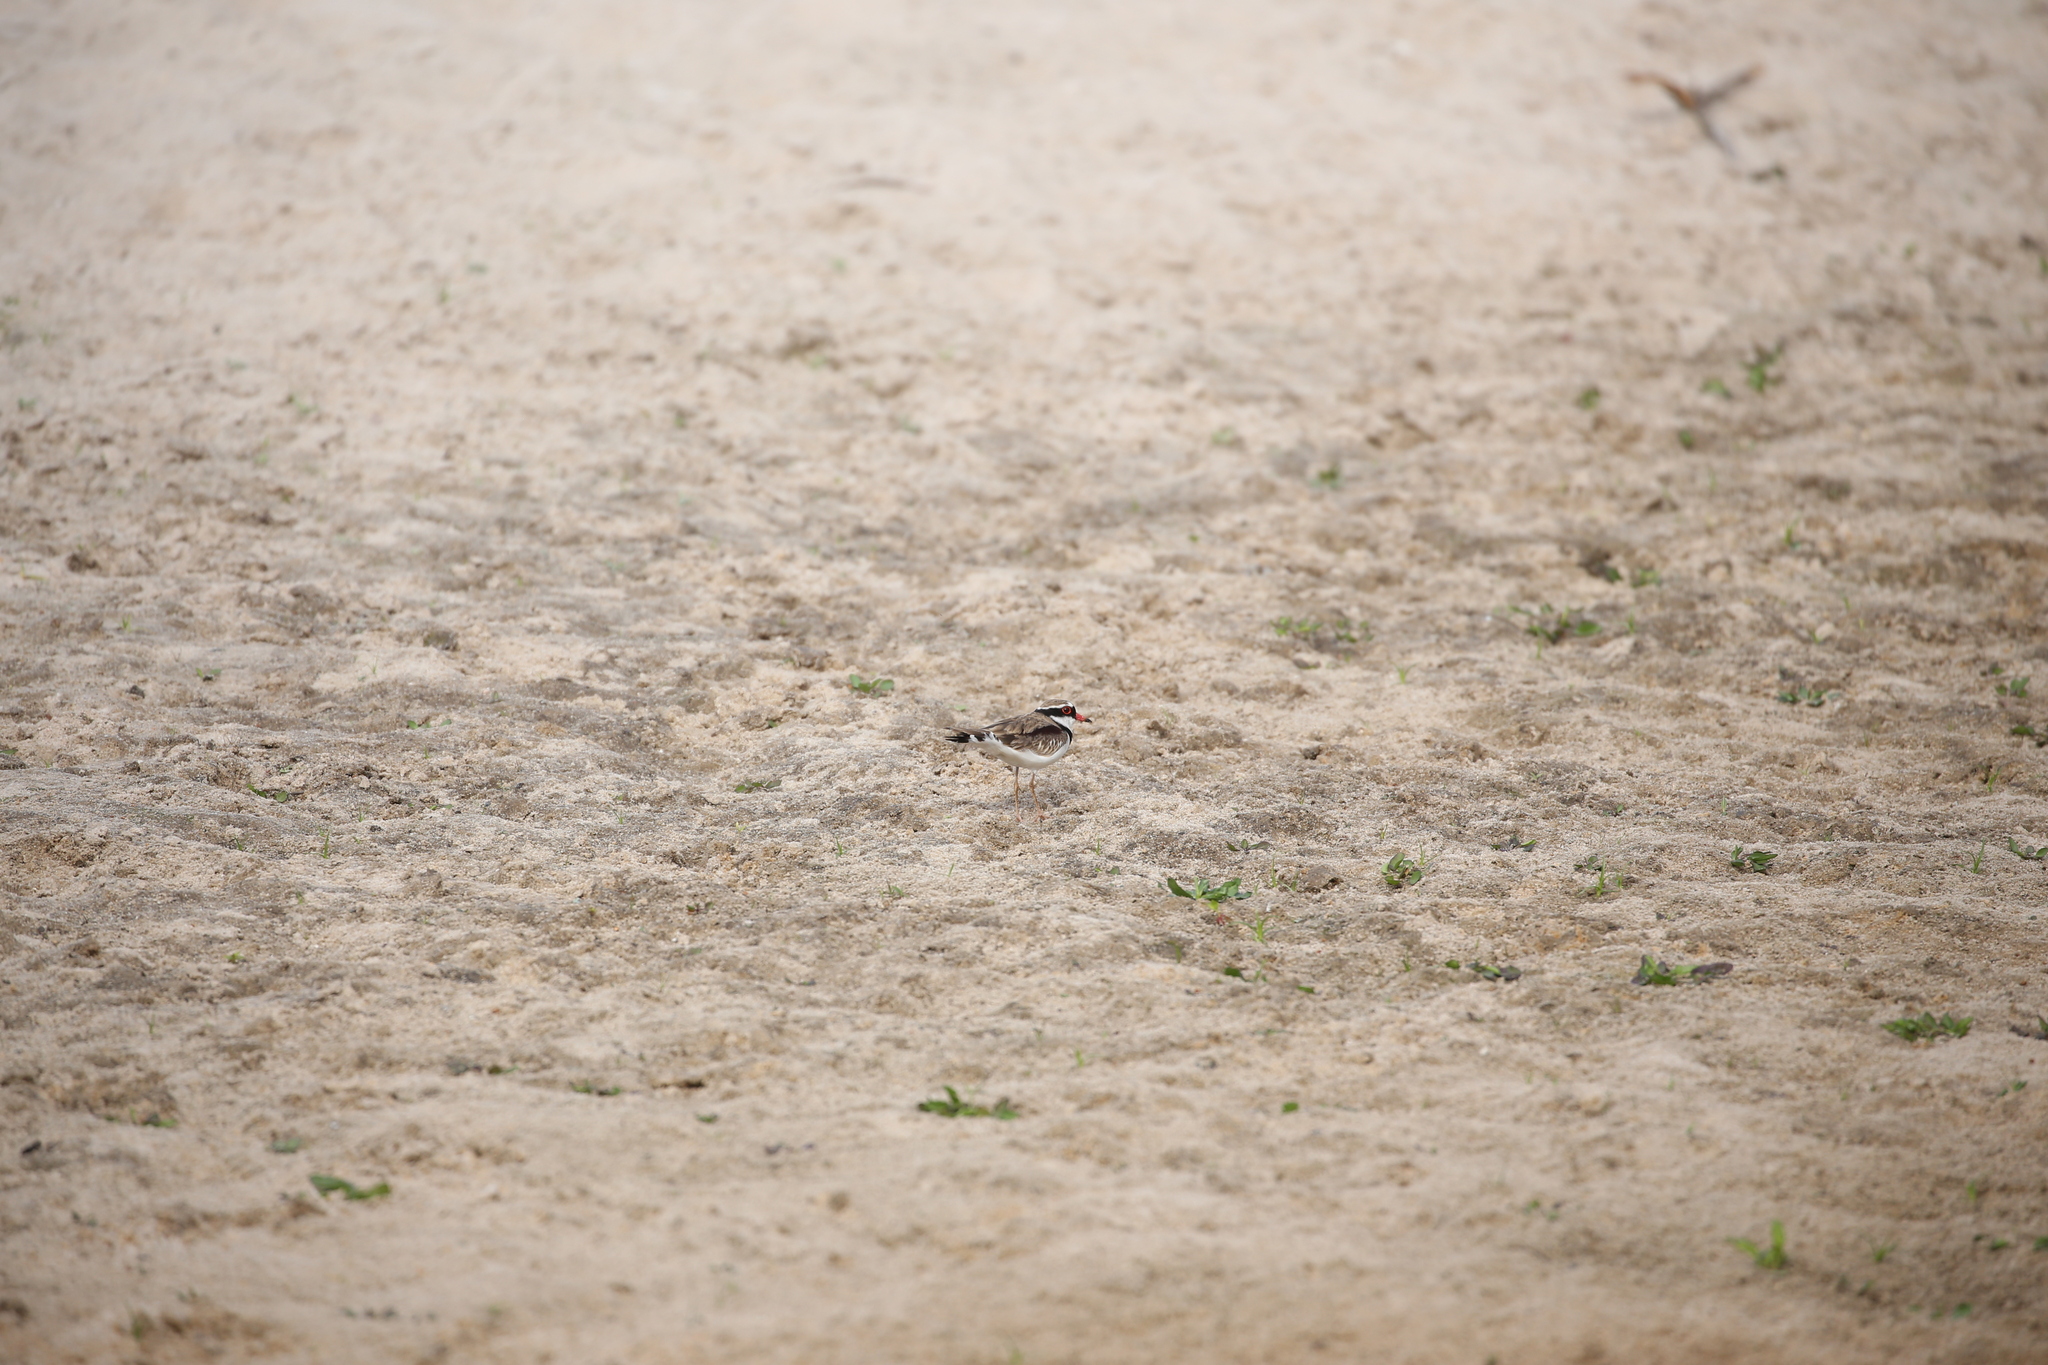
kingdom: Animalia
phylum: Chordata
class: Aves
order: Charadriiformes
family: Charadriidae
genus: Elseyornis
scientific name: Elseyornis melanops
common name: Black-fronted dotterel
